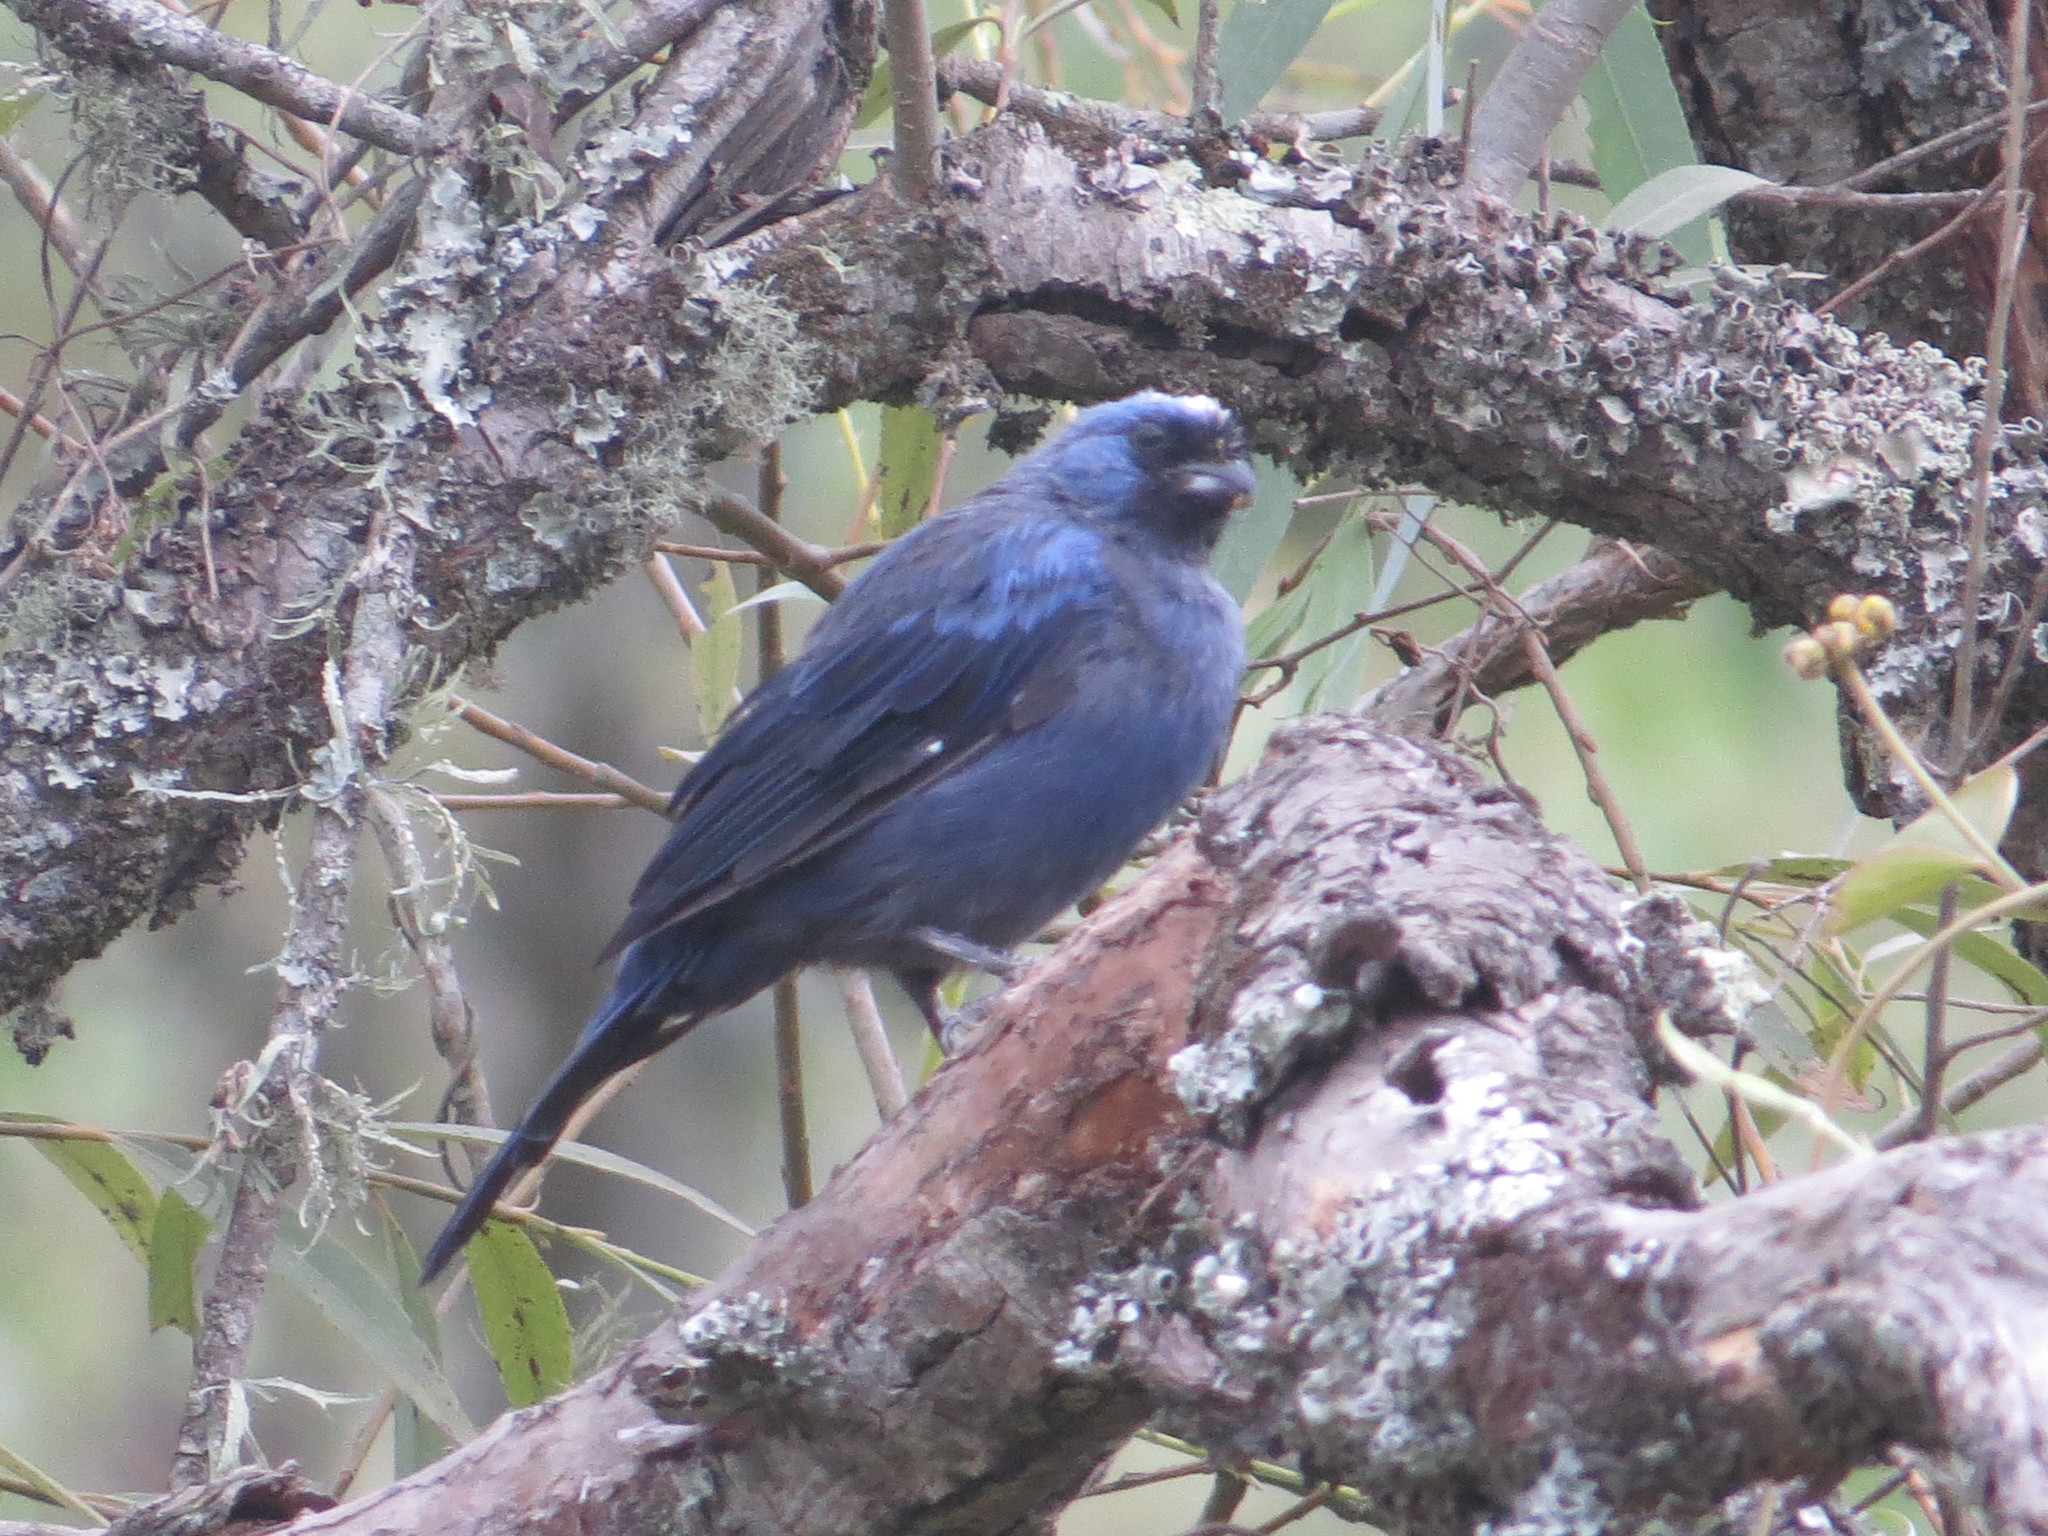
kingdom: Animalia
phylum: Chordata
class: Aves
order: Passeriformes
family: Thraupidae
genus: Stephanophorus
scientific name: Stephanophorus diadematus
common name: Diademed tanager
